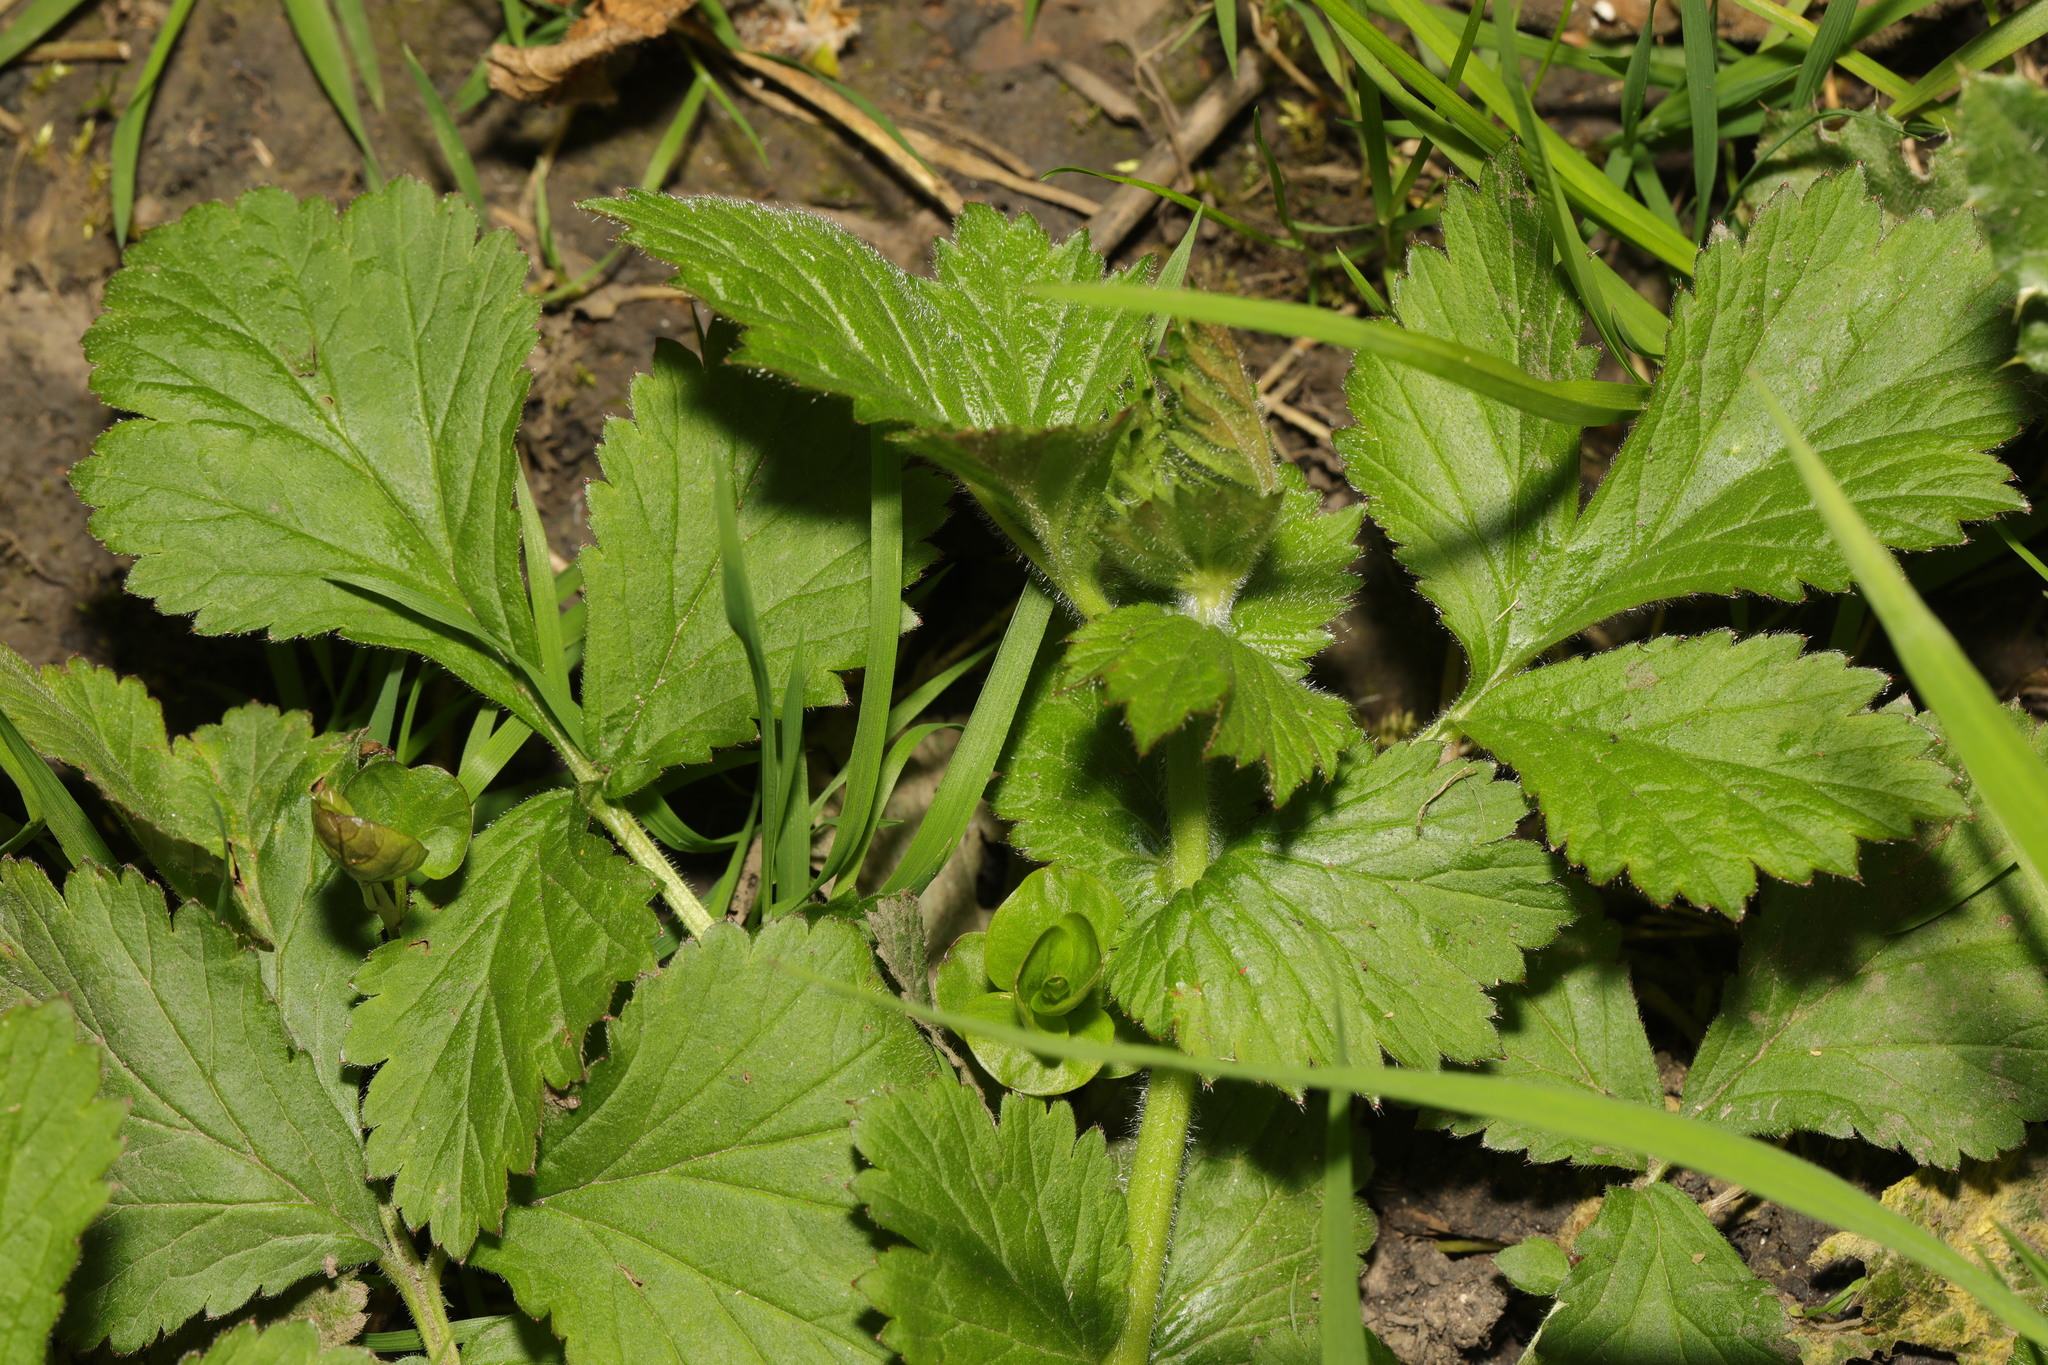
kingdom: Plantae
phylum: Tracheophyta
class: Magnoliopsida
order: Rosales
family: Rosaceae
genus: Geum
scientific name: Geum urbanum
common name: Wood avens
